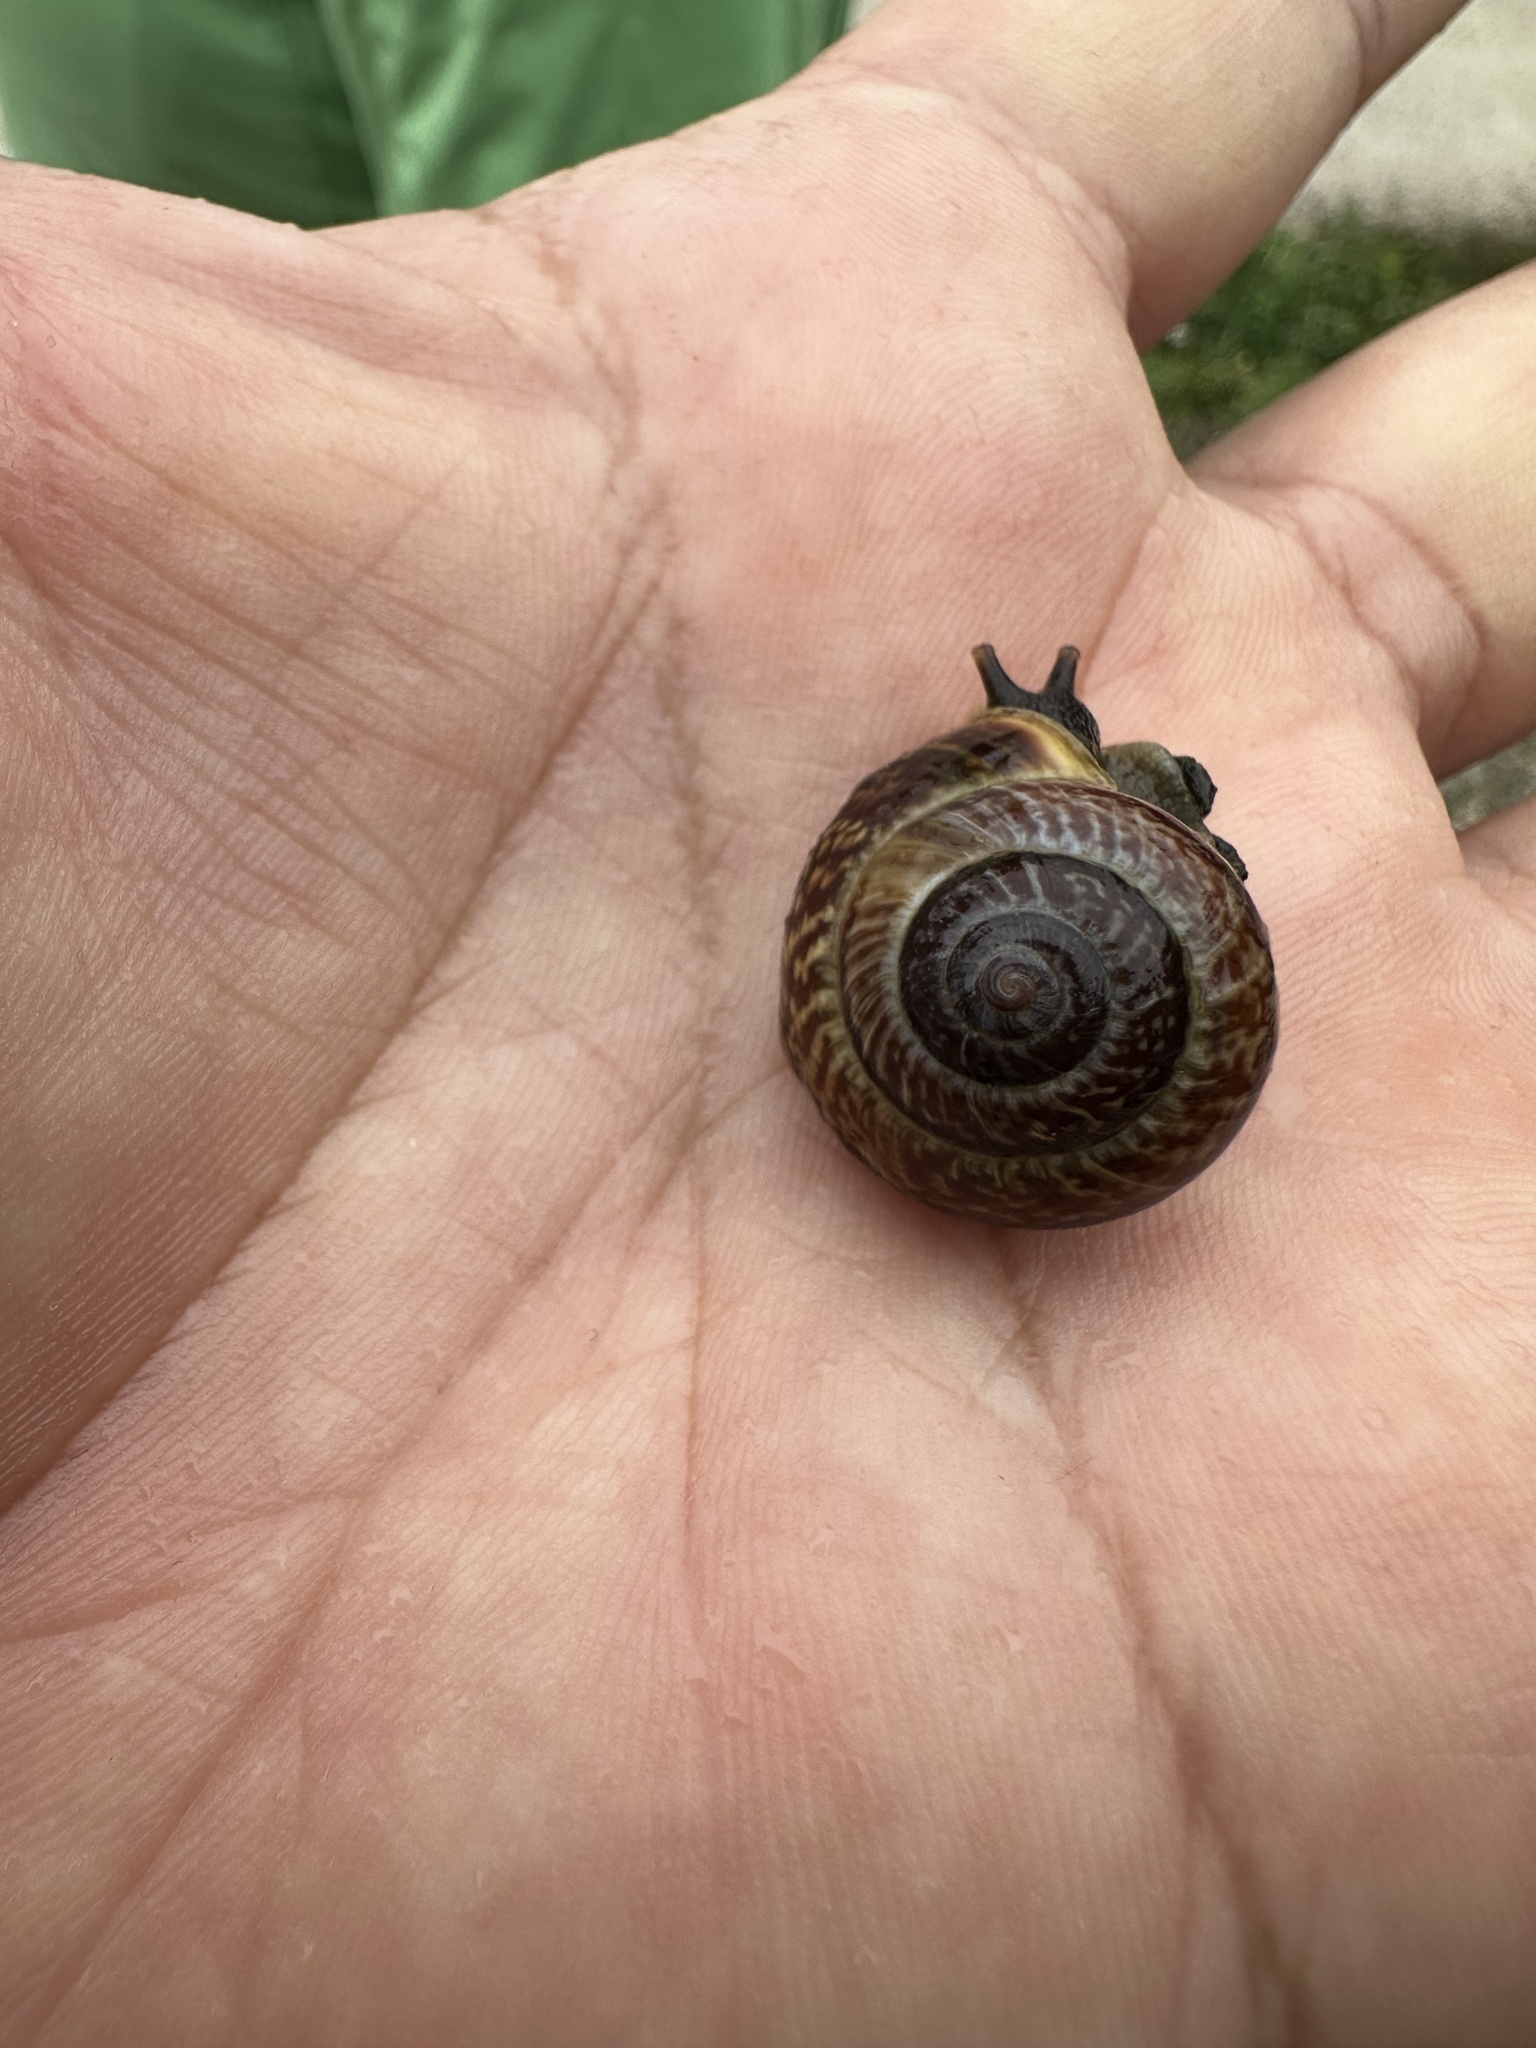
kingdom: Animalia
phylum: Mollusca
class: Gastropoda
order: Stylommatophora
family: Helicidae
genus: Arianta
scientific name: Arianta arbustorum
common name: Copse snail
